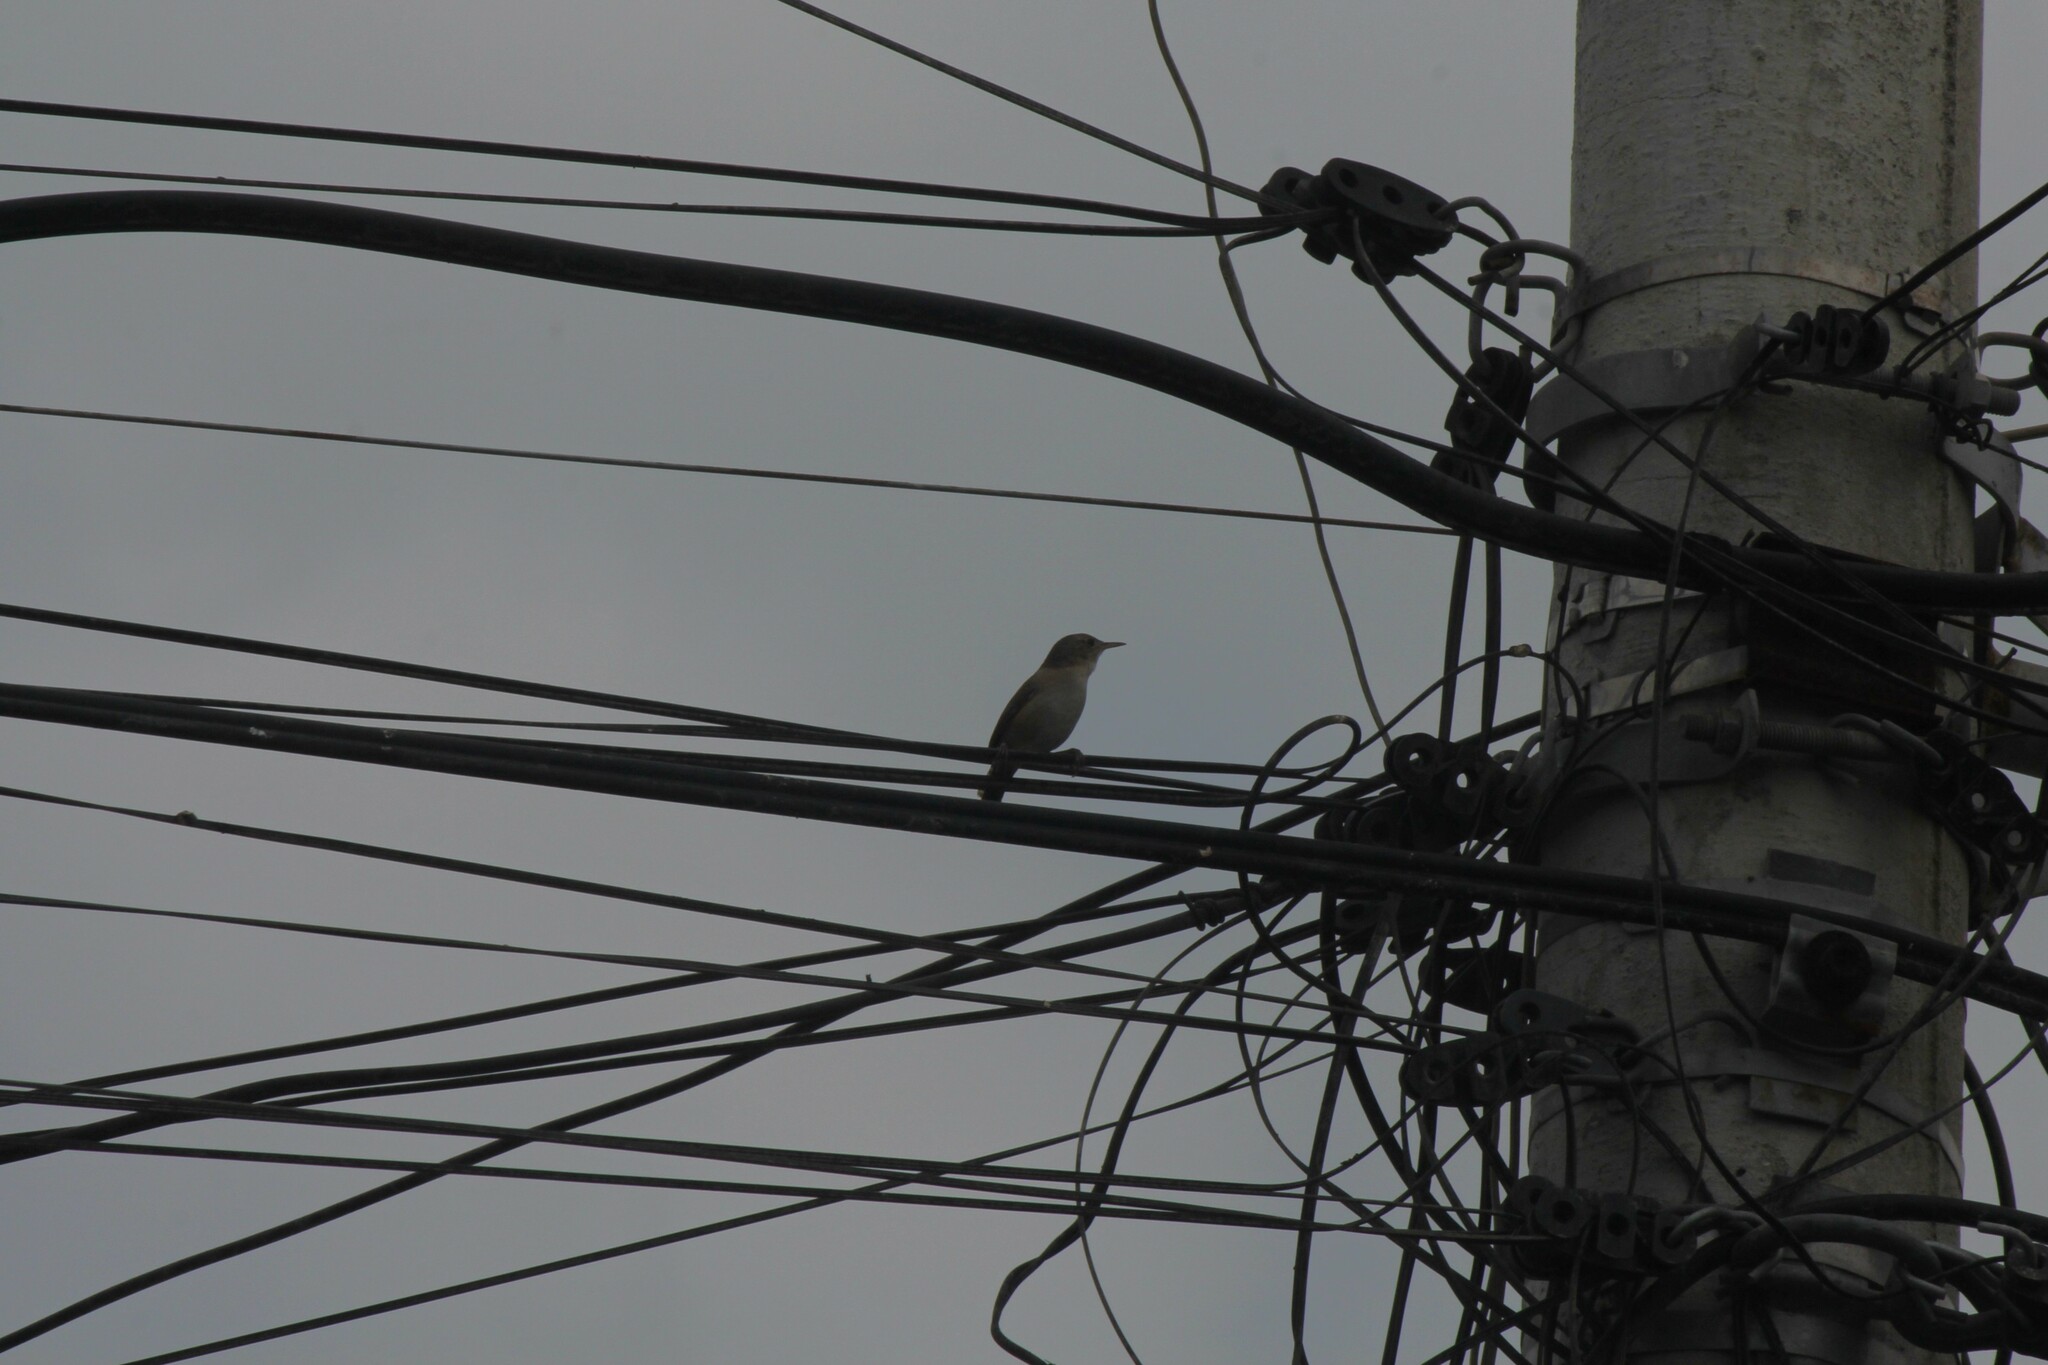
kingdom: Animalia
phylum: Chordata
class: Aves
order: Passeriformes
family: Troglodytidae
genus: Troglodytes
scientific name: Troglodytes aedon
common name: House wren
